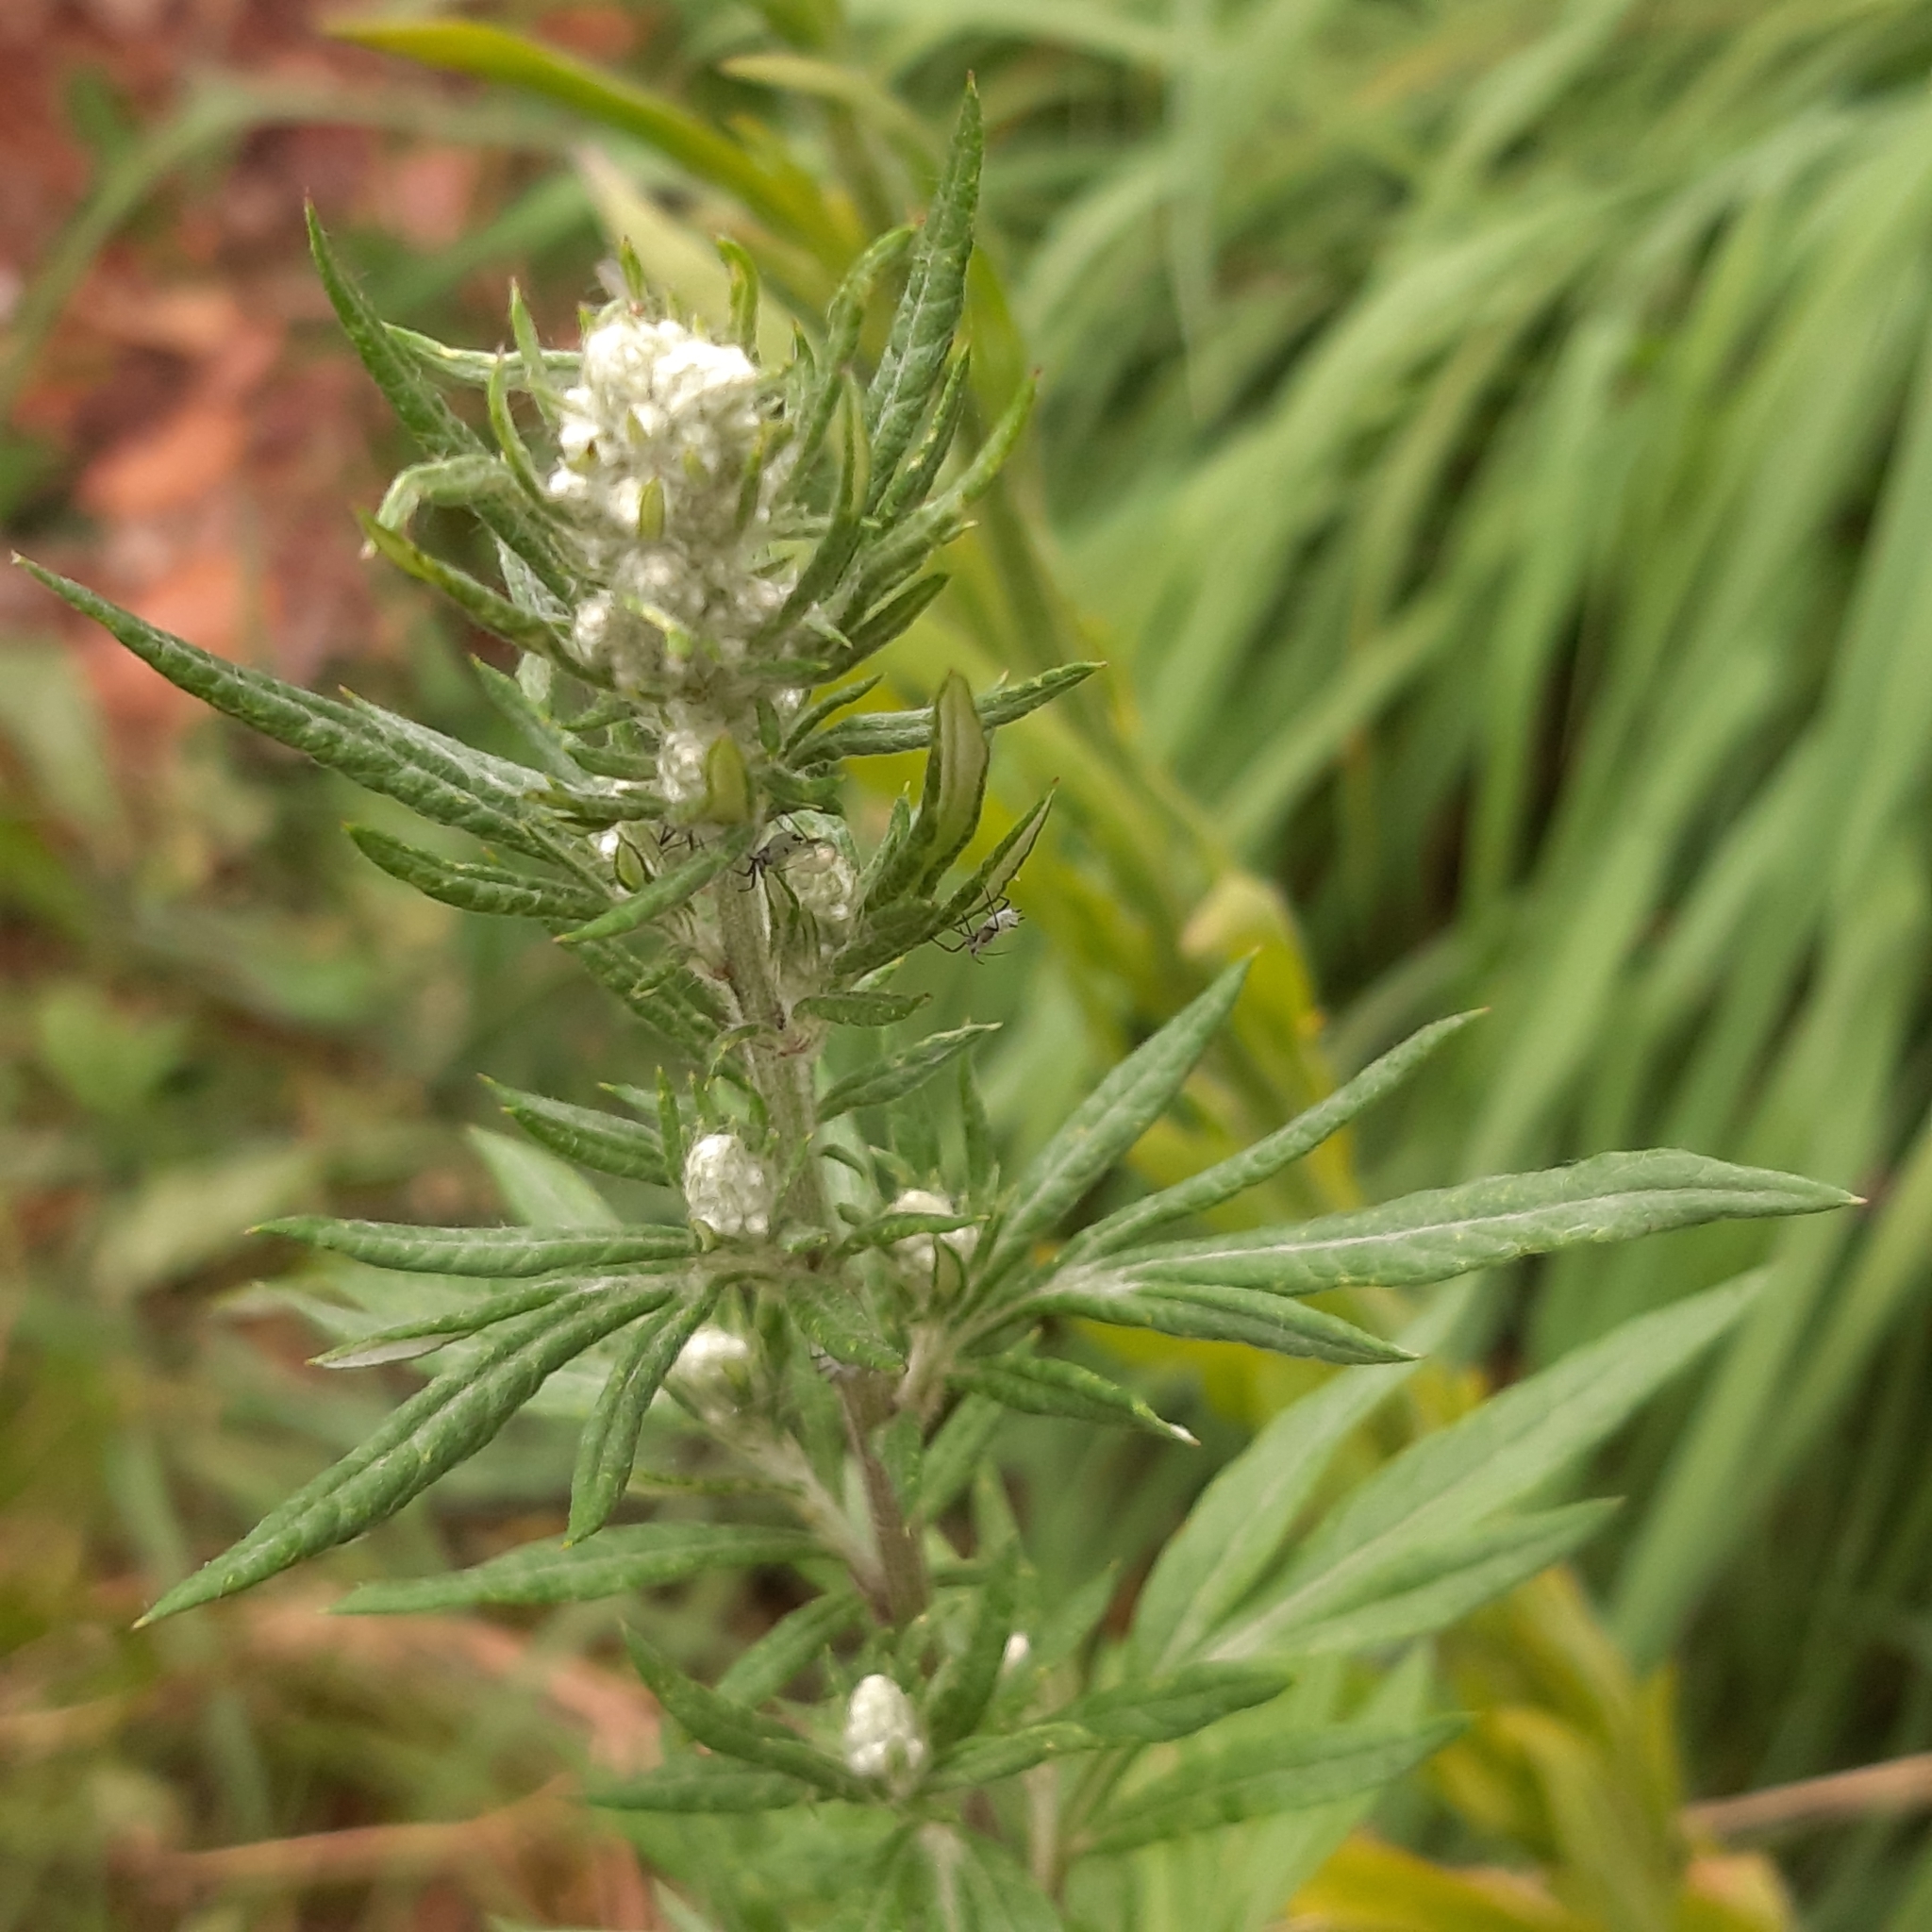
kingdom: Plantae
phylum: Tracheophyta
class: Magnoliopsida
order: Asterales
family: Asteraceae
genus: Artemisia
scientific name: Artemisia vulgaris
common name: Mugwort
